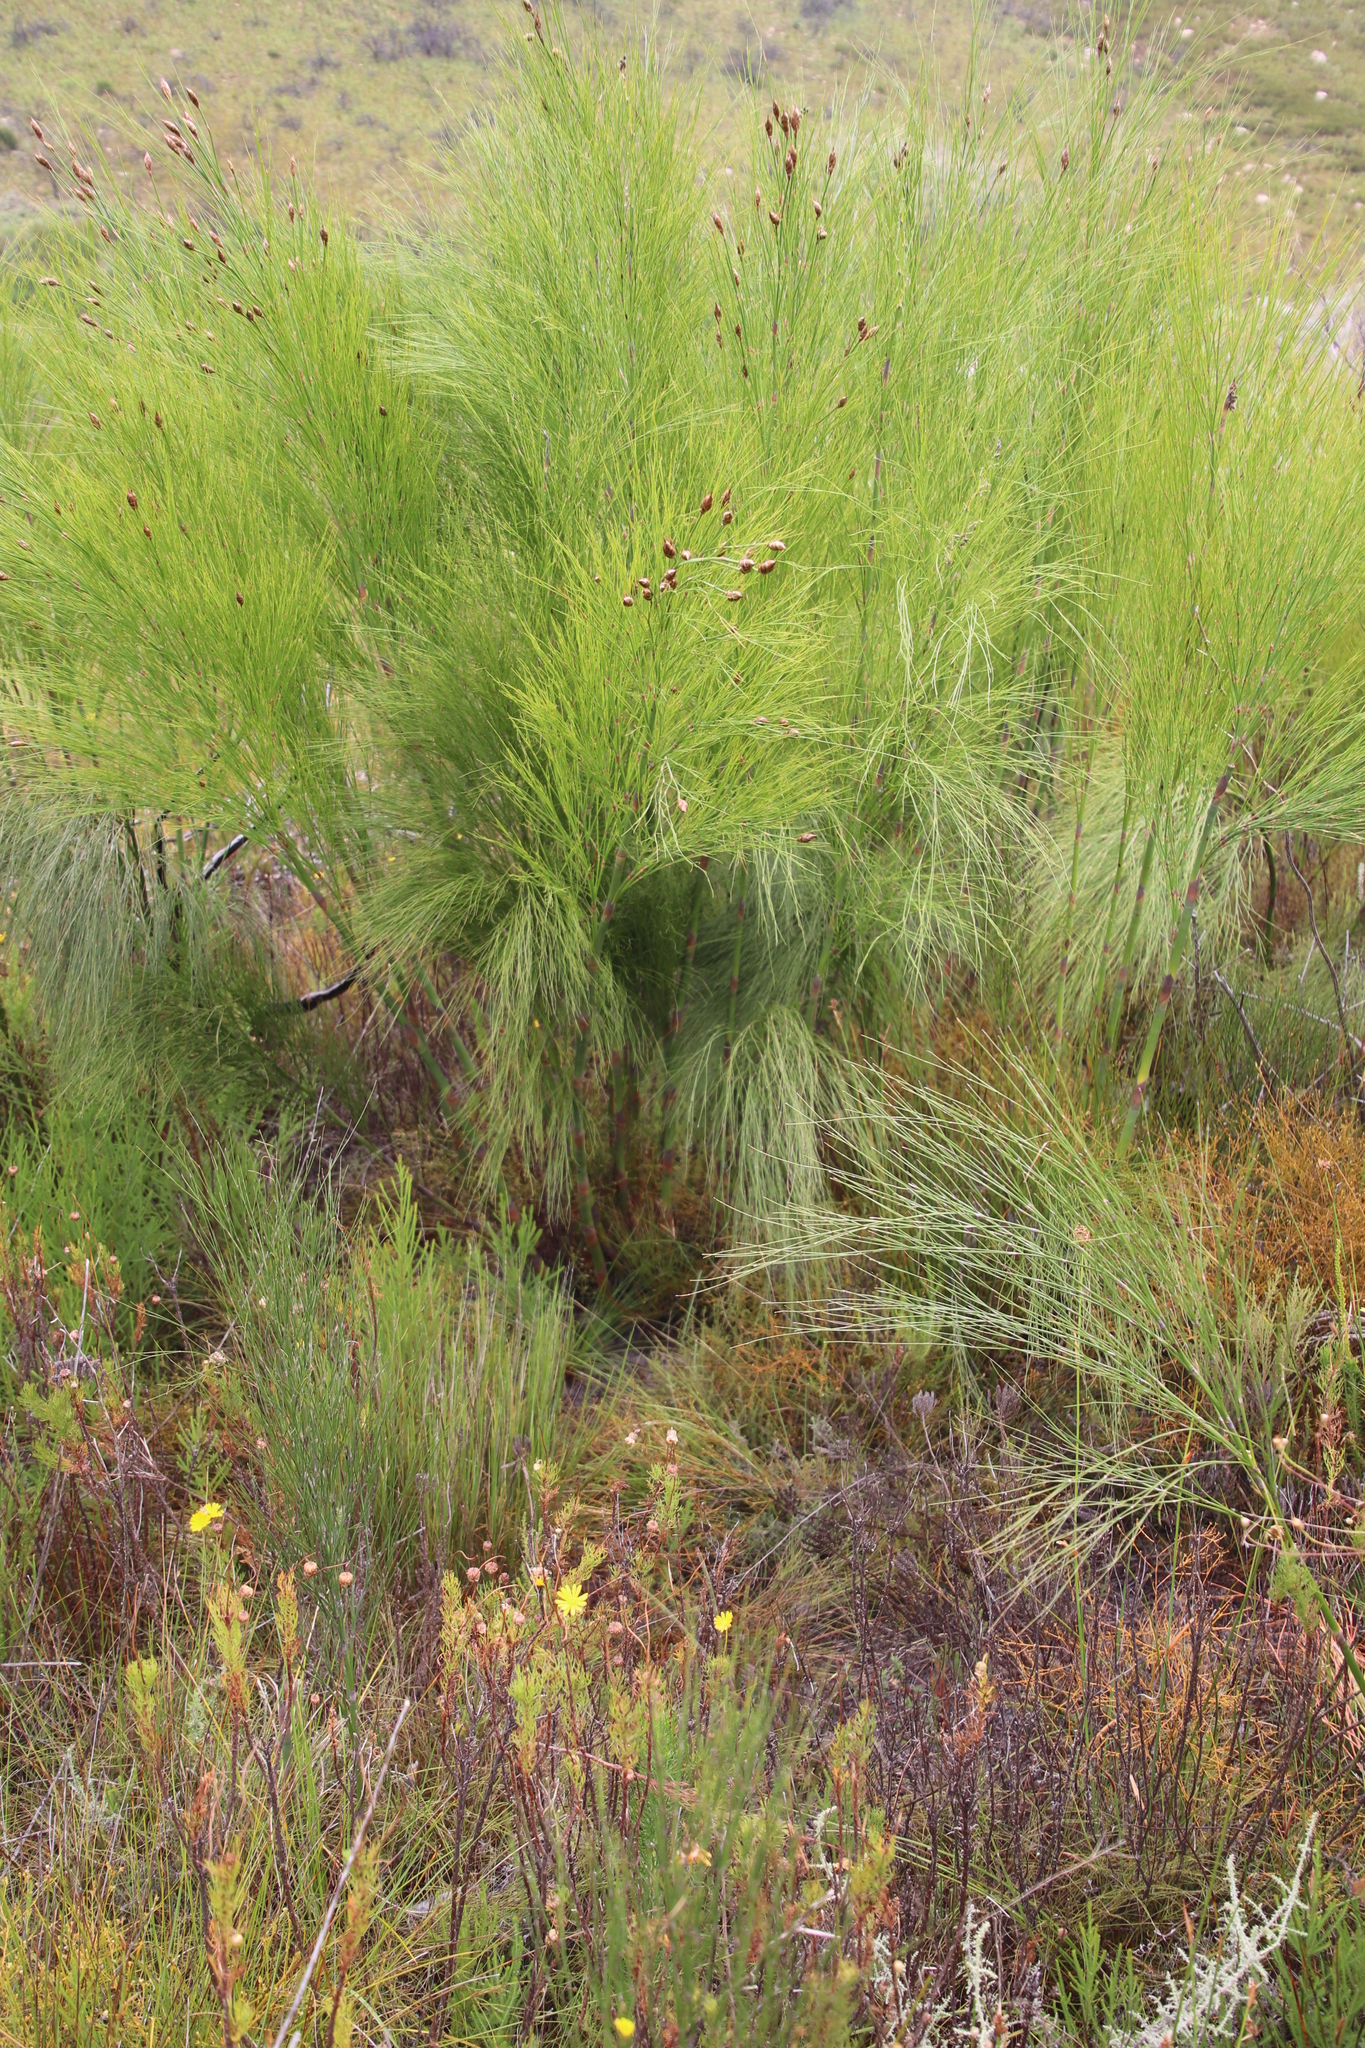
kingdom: Plantae
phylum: Tracheophyta
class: Liliopsida
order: Poales
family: Restionaceae
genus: Cannomois
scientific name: Cannomois virgata
